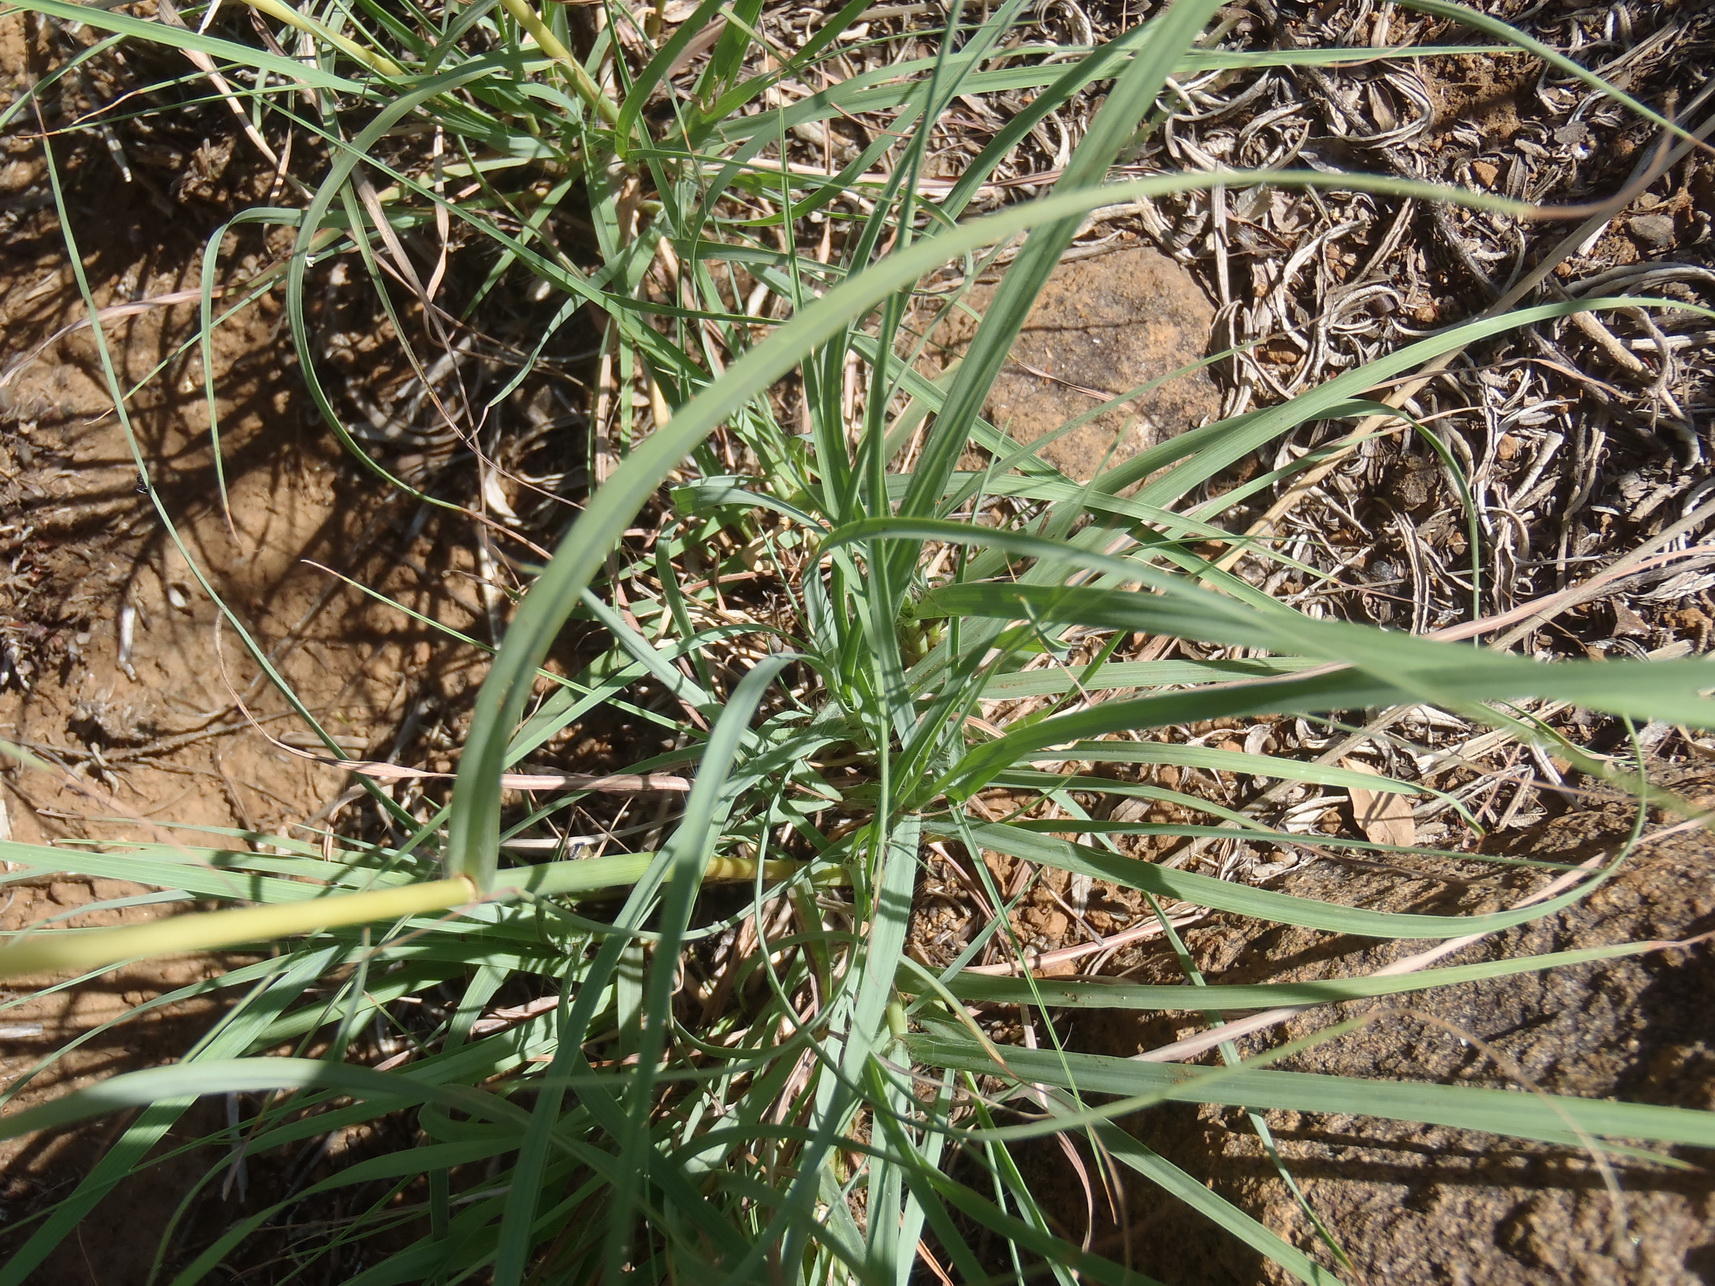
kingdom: Plantae
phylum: Tracheophyta
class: Liliopsida
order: Poales
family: Poaceae
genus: Cymbopogon
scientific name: Cymbopogon pospischilii
